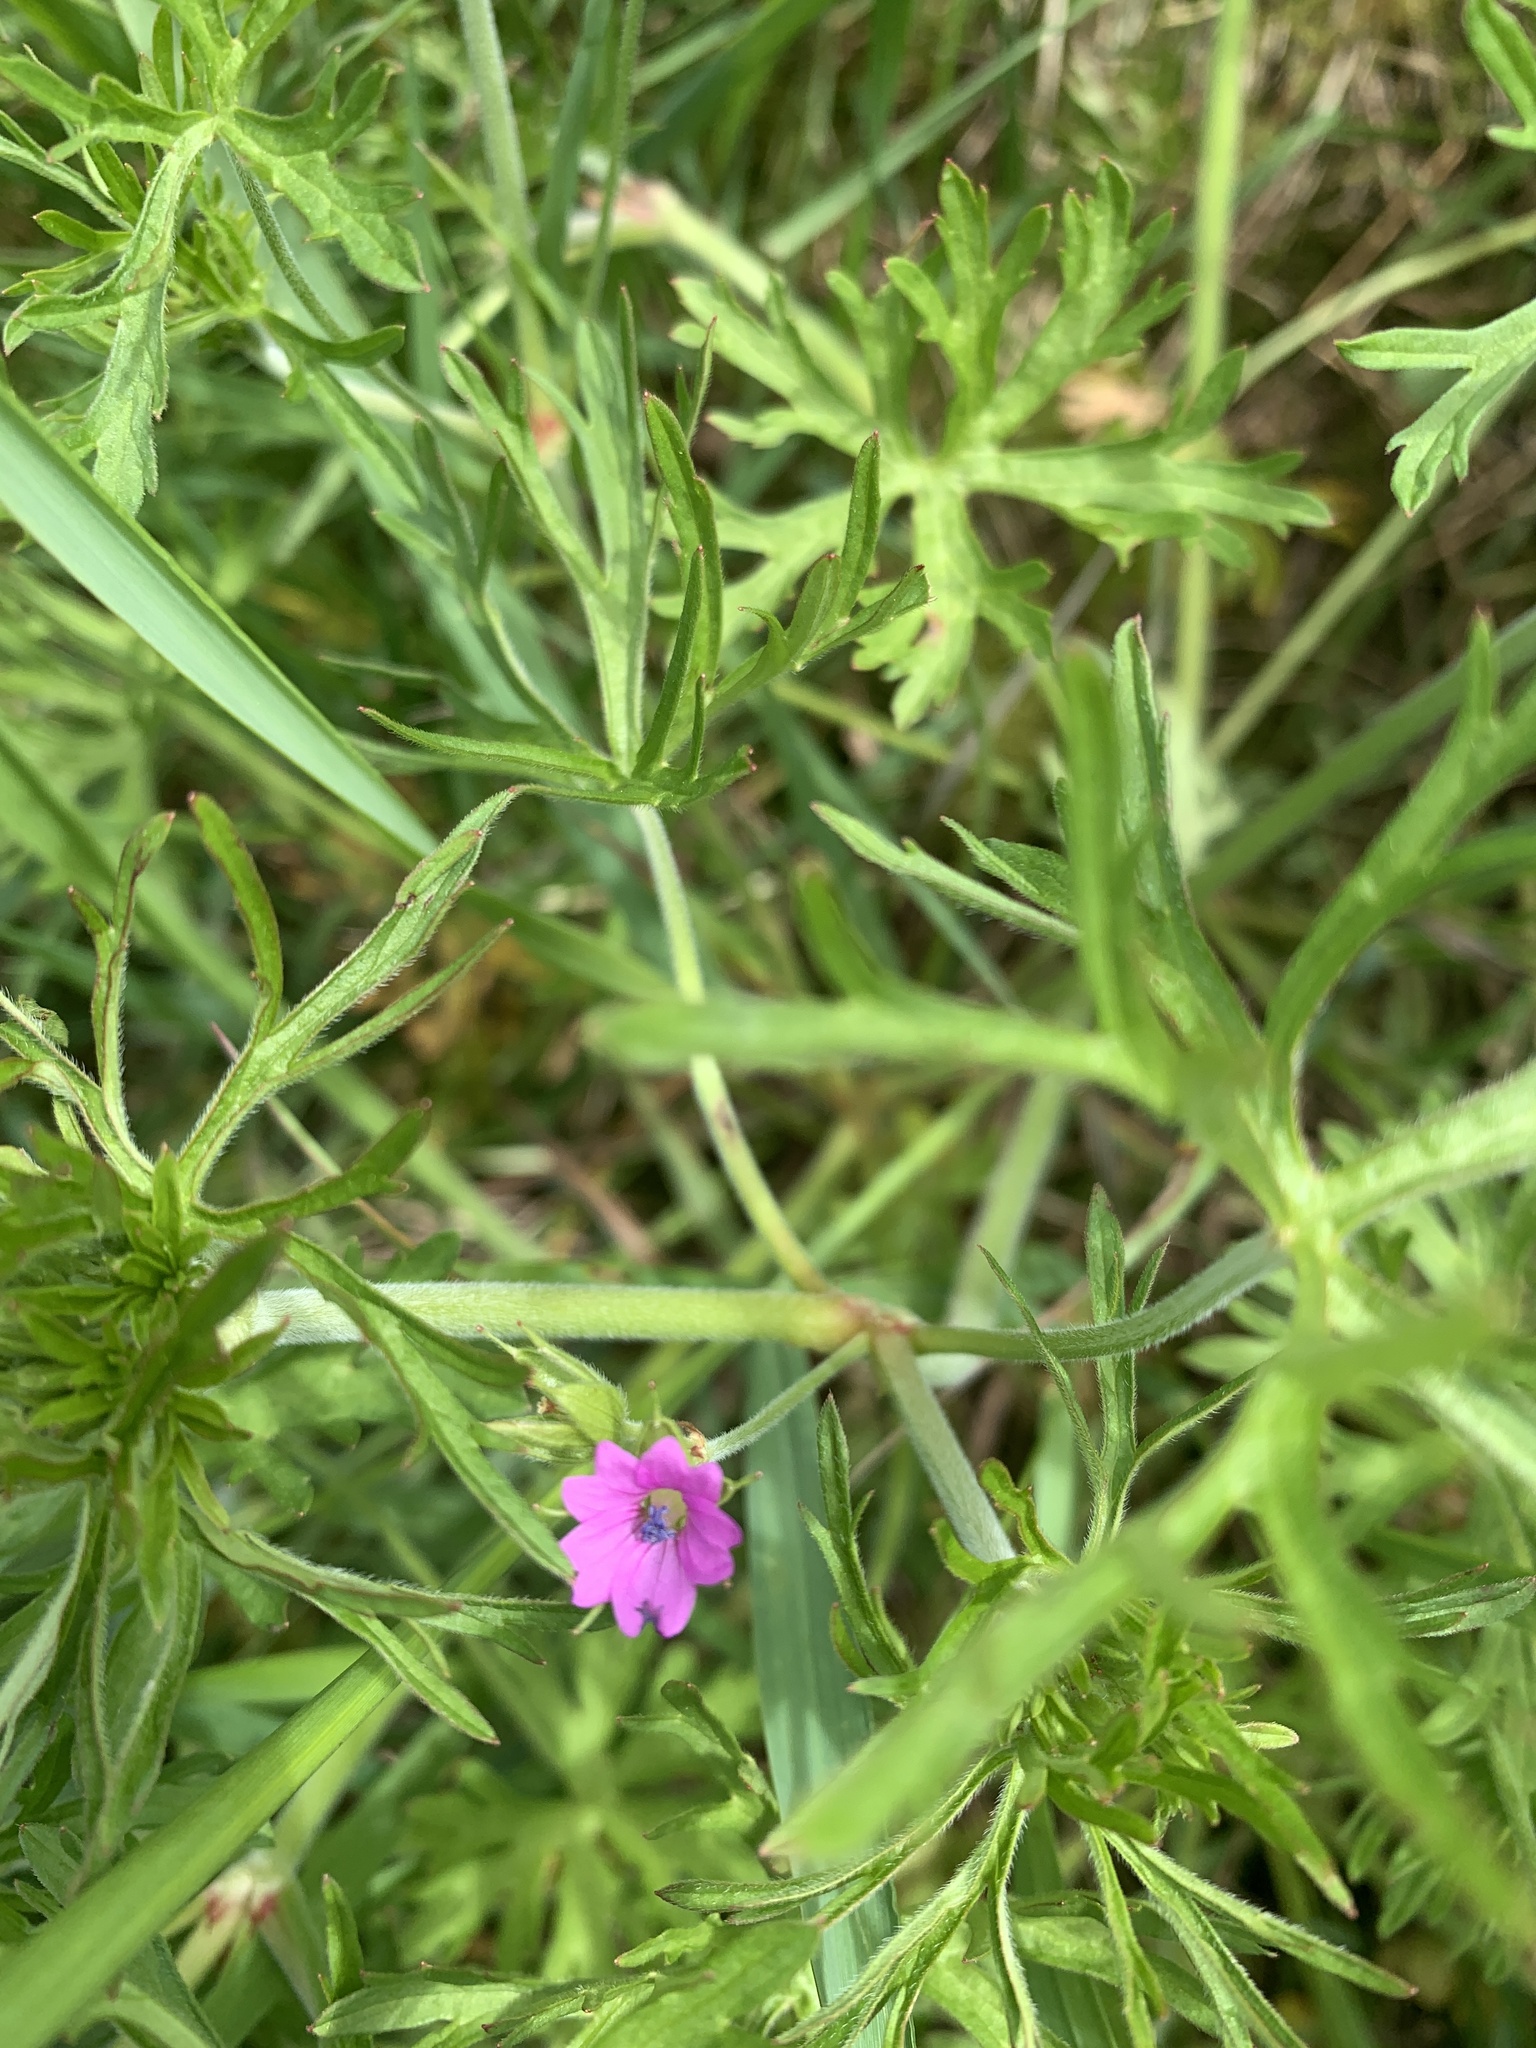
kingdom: Plantae
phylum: Tracheophyta
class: Magnoliopsida
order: Geraniales
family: Geraniaceae
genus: Geranium
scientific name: Geranium dissectum
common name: Cut-leaved crane's-bill
